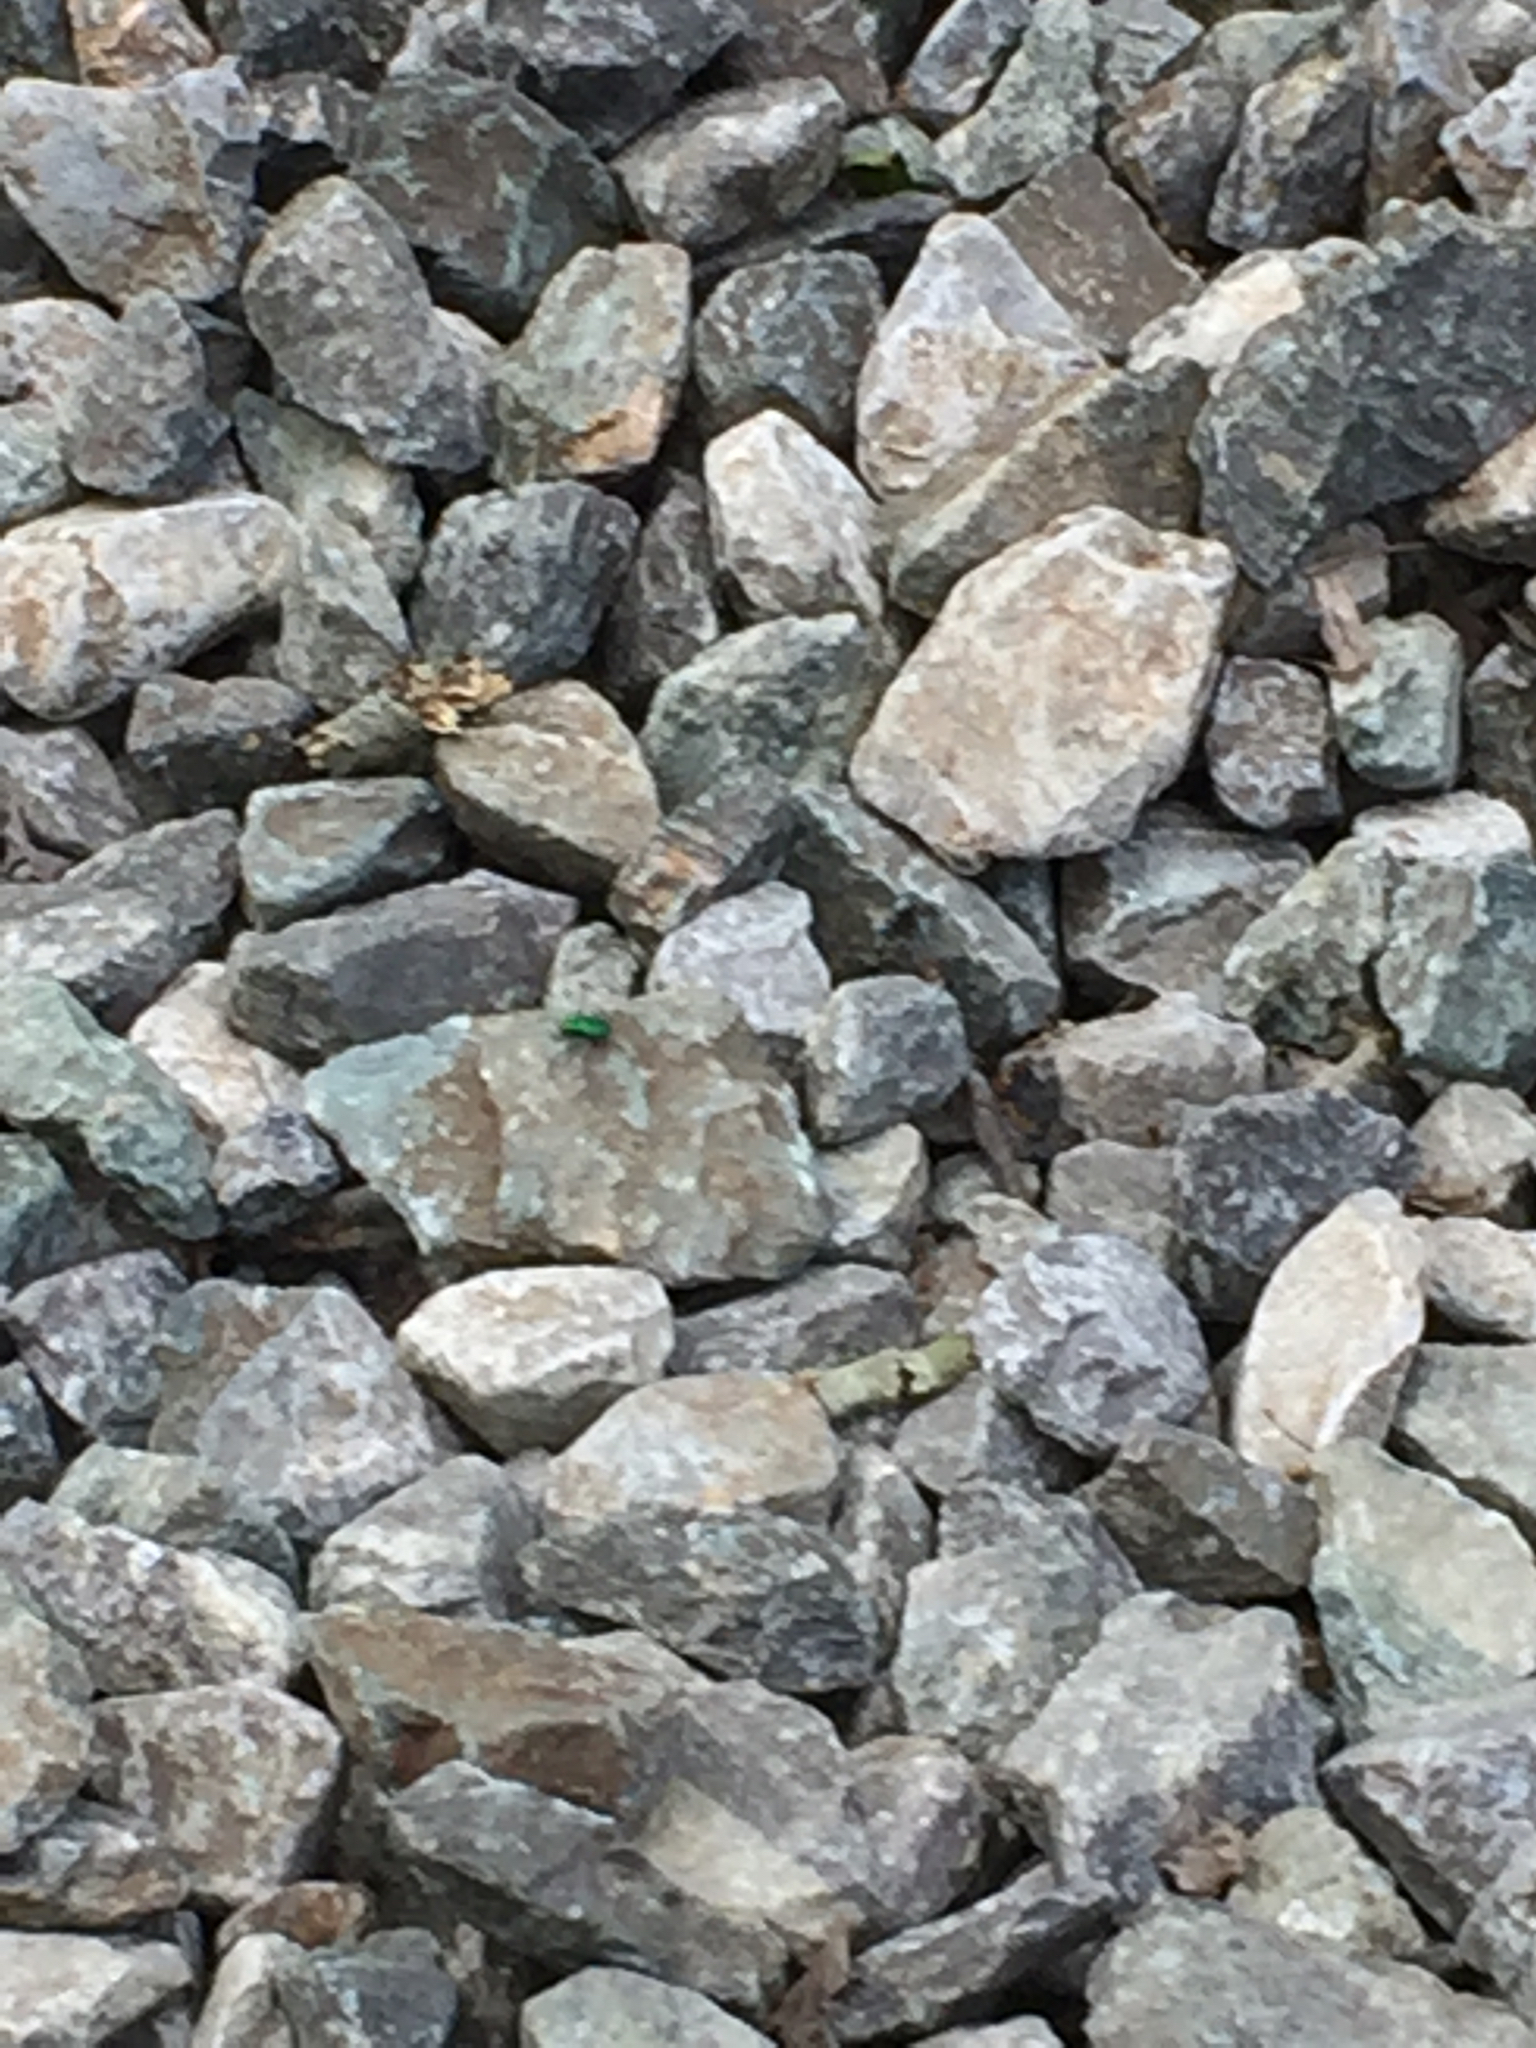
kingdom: Animalia
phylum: Arthropoda
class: Insecta
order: Coleoptera
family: Carabidae
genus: Cicindela
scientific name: Cicindela sexguttata
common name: Six-spotted tiger beetle
